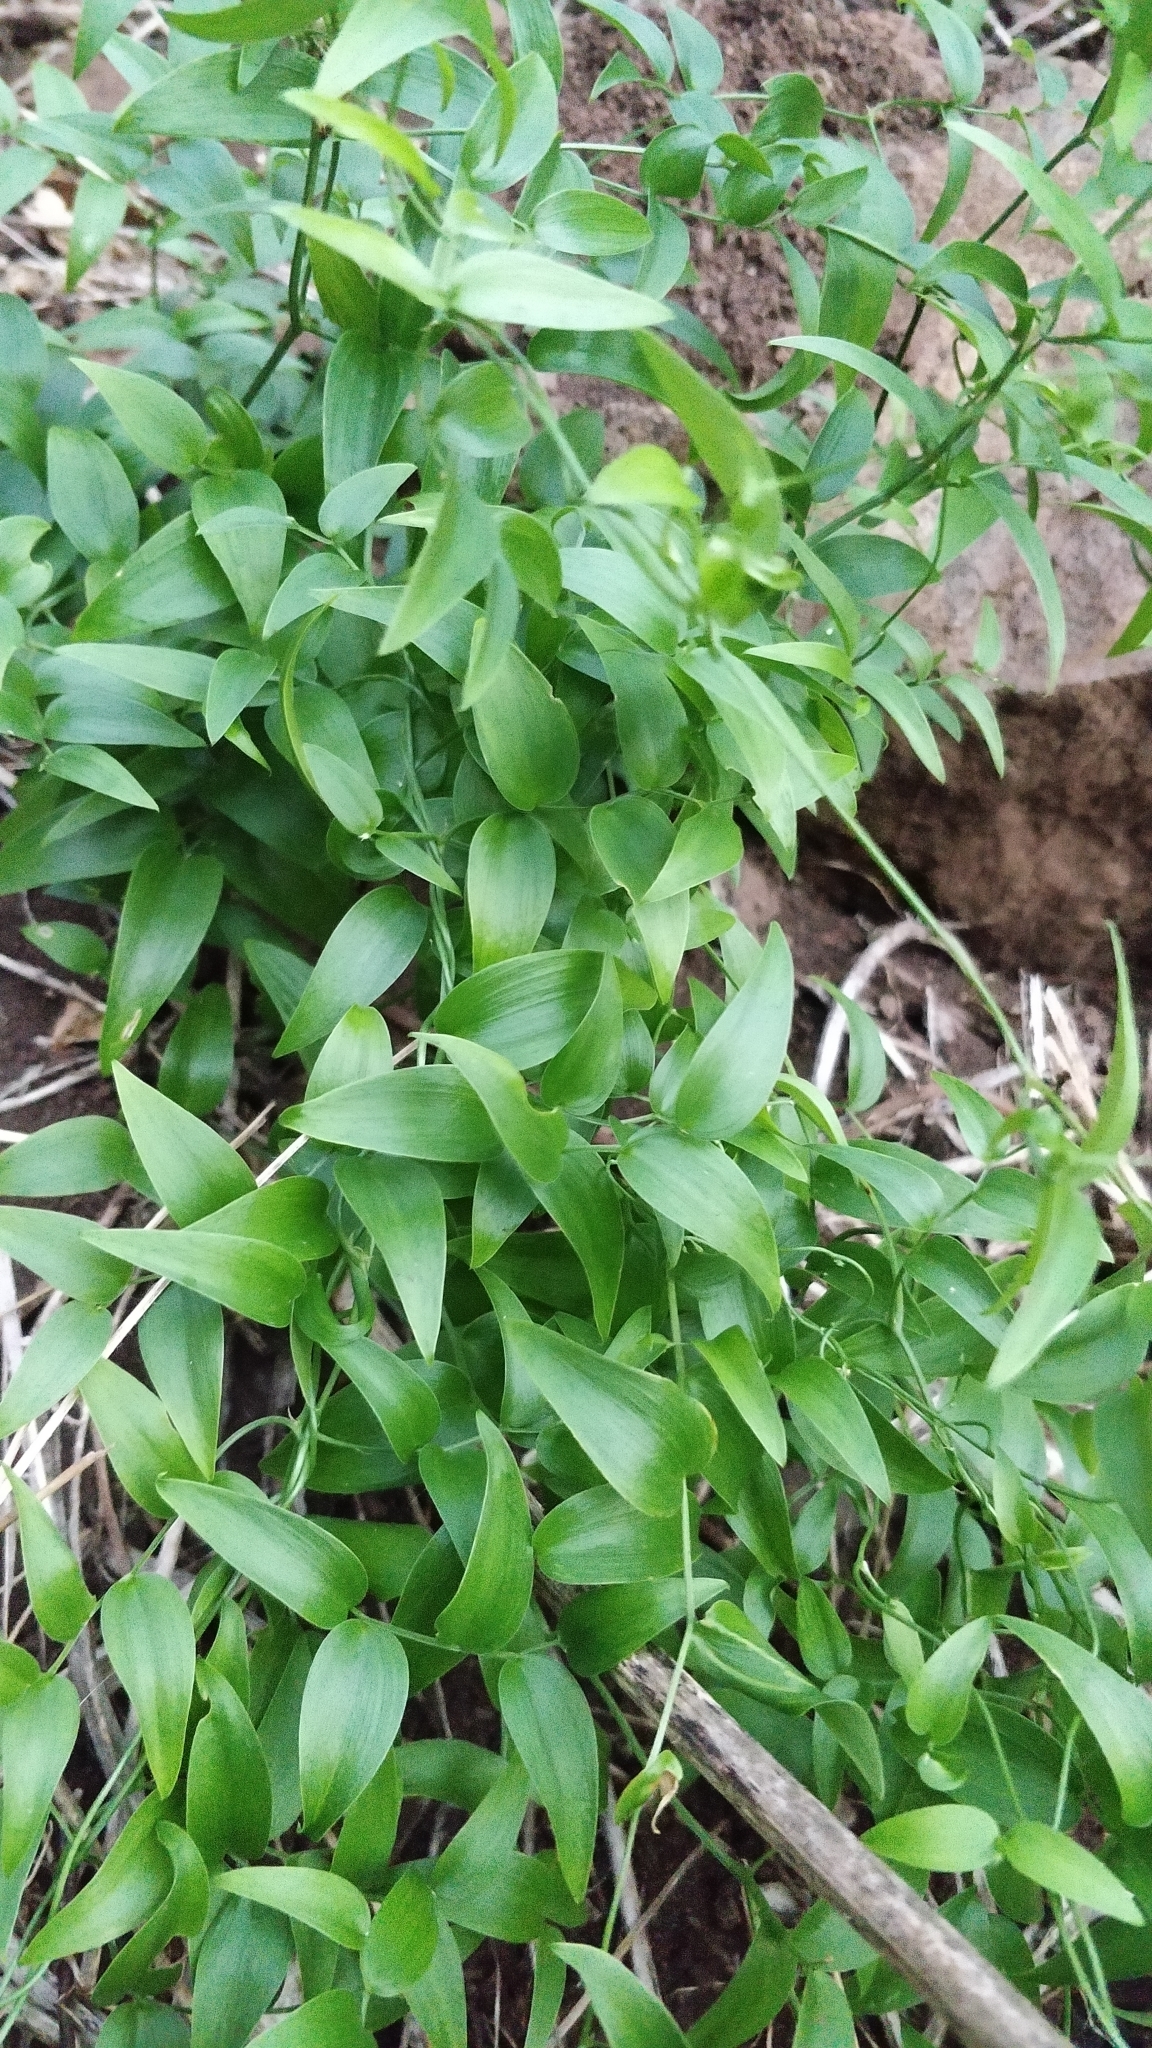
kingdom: Plantae
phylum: Tracheophyta
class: Liliopsida
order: Asparagales
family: Asparagaceae
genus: Asparagus
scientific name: Asparagus asparagoides
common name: African asparagus fern
